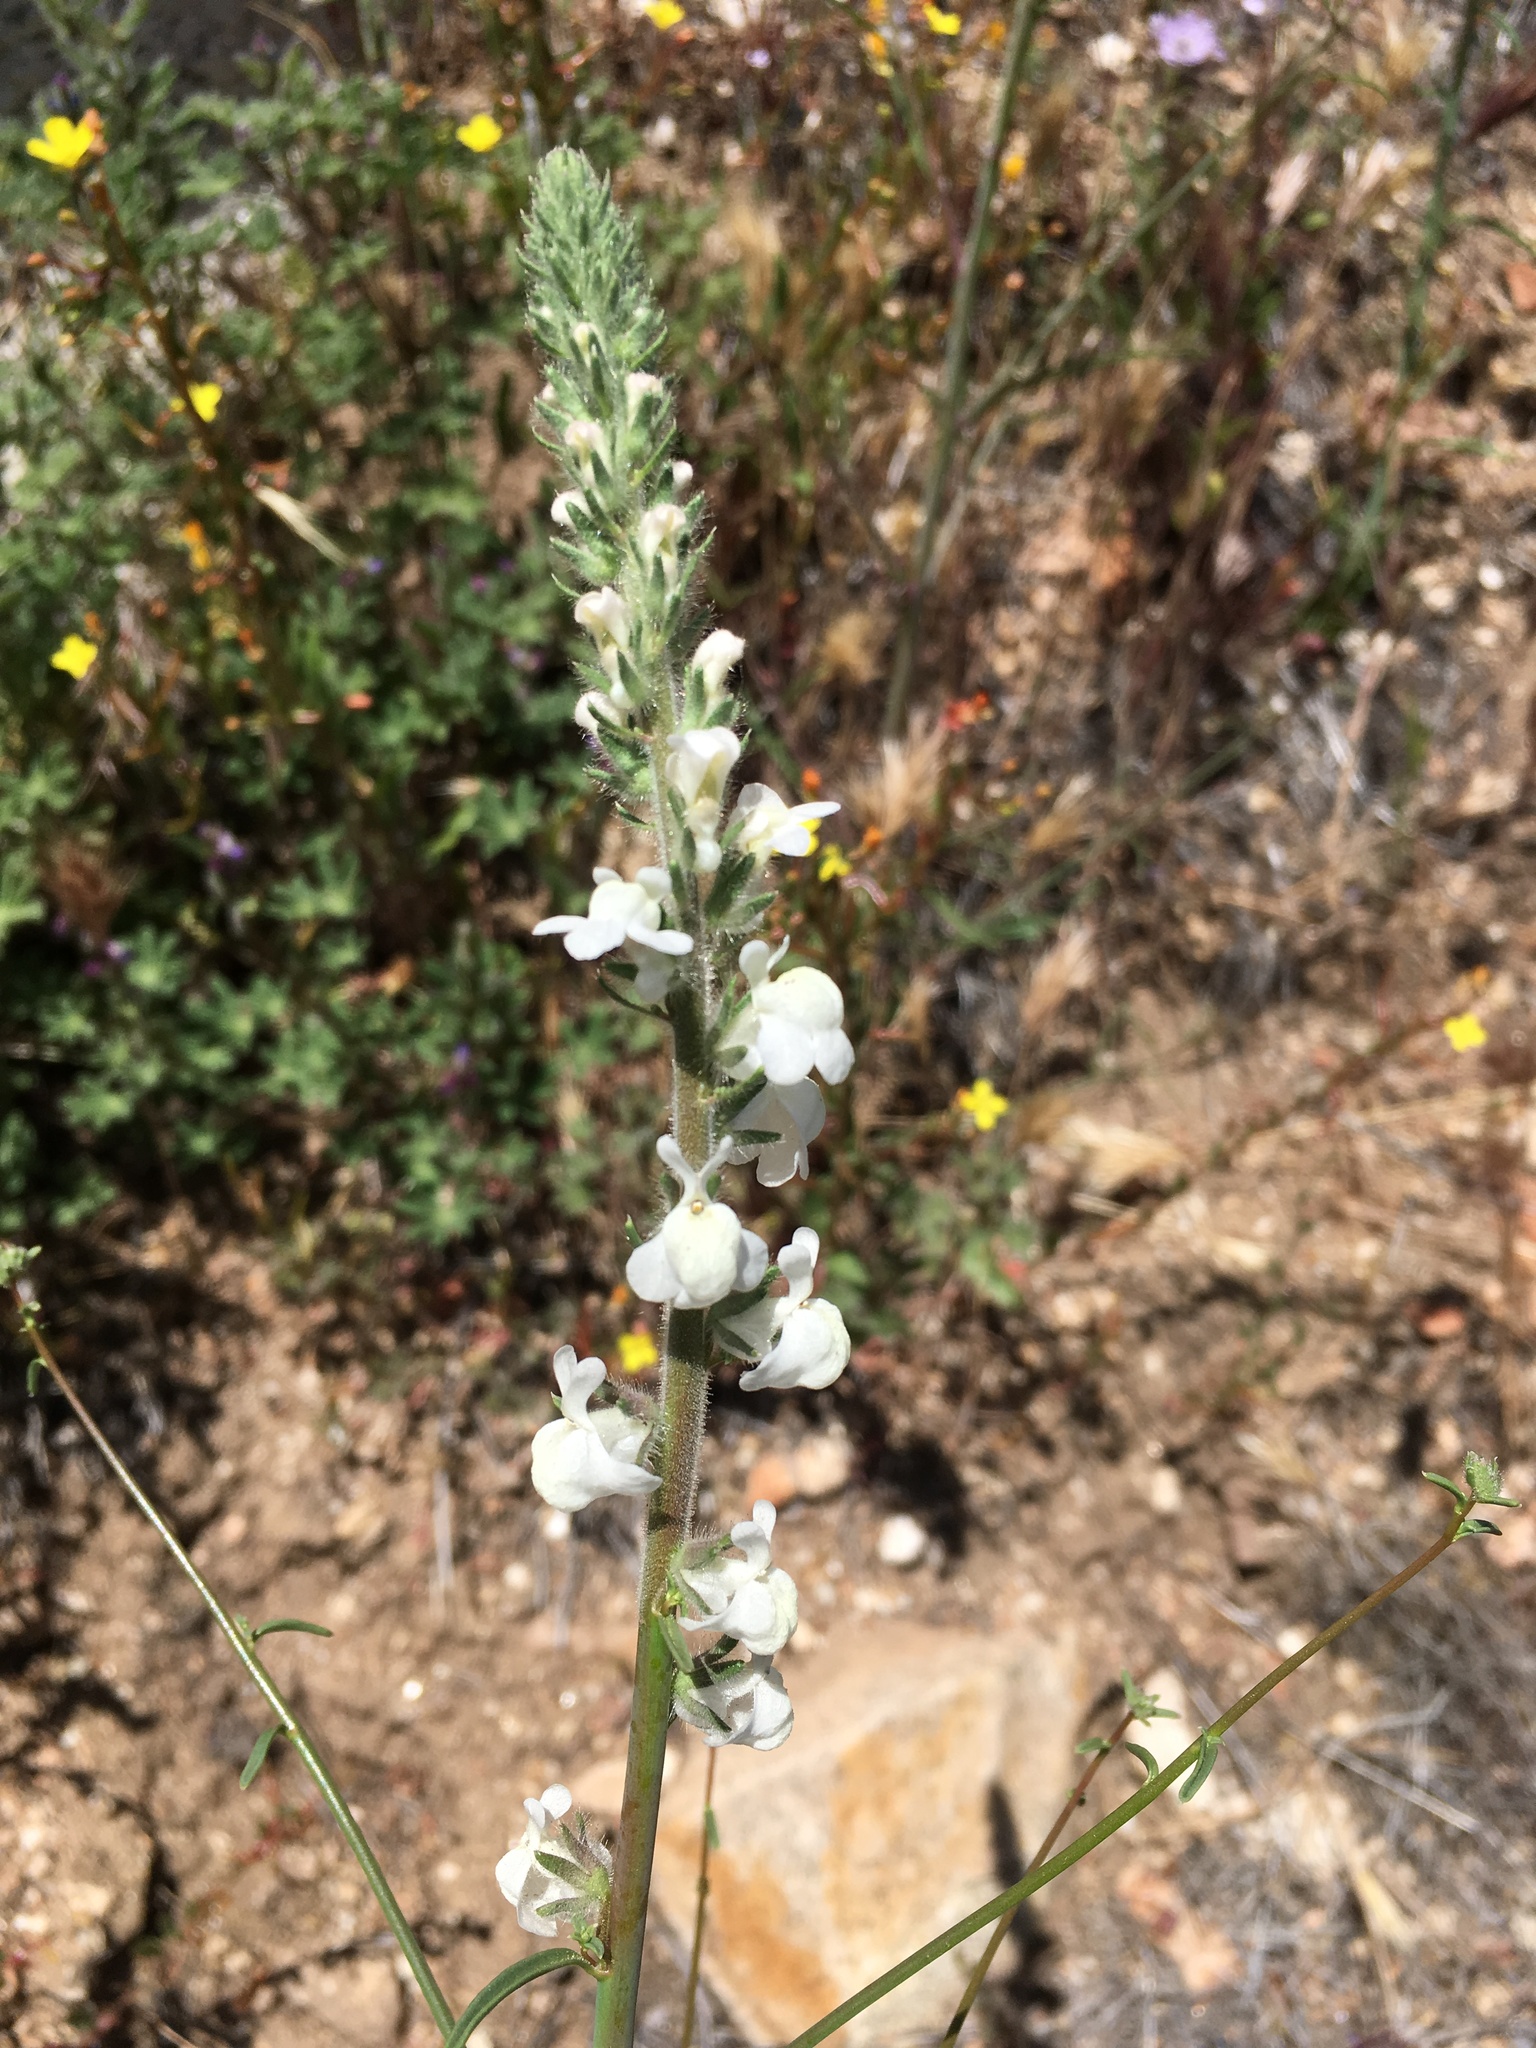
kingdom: Plantae
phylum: Tracheophyta
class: Magnoliopsida
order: Lamiales
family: Plantaginaceae
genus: Sairocarpus
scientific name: Sairocarpus coulterianus
